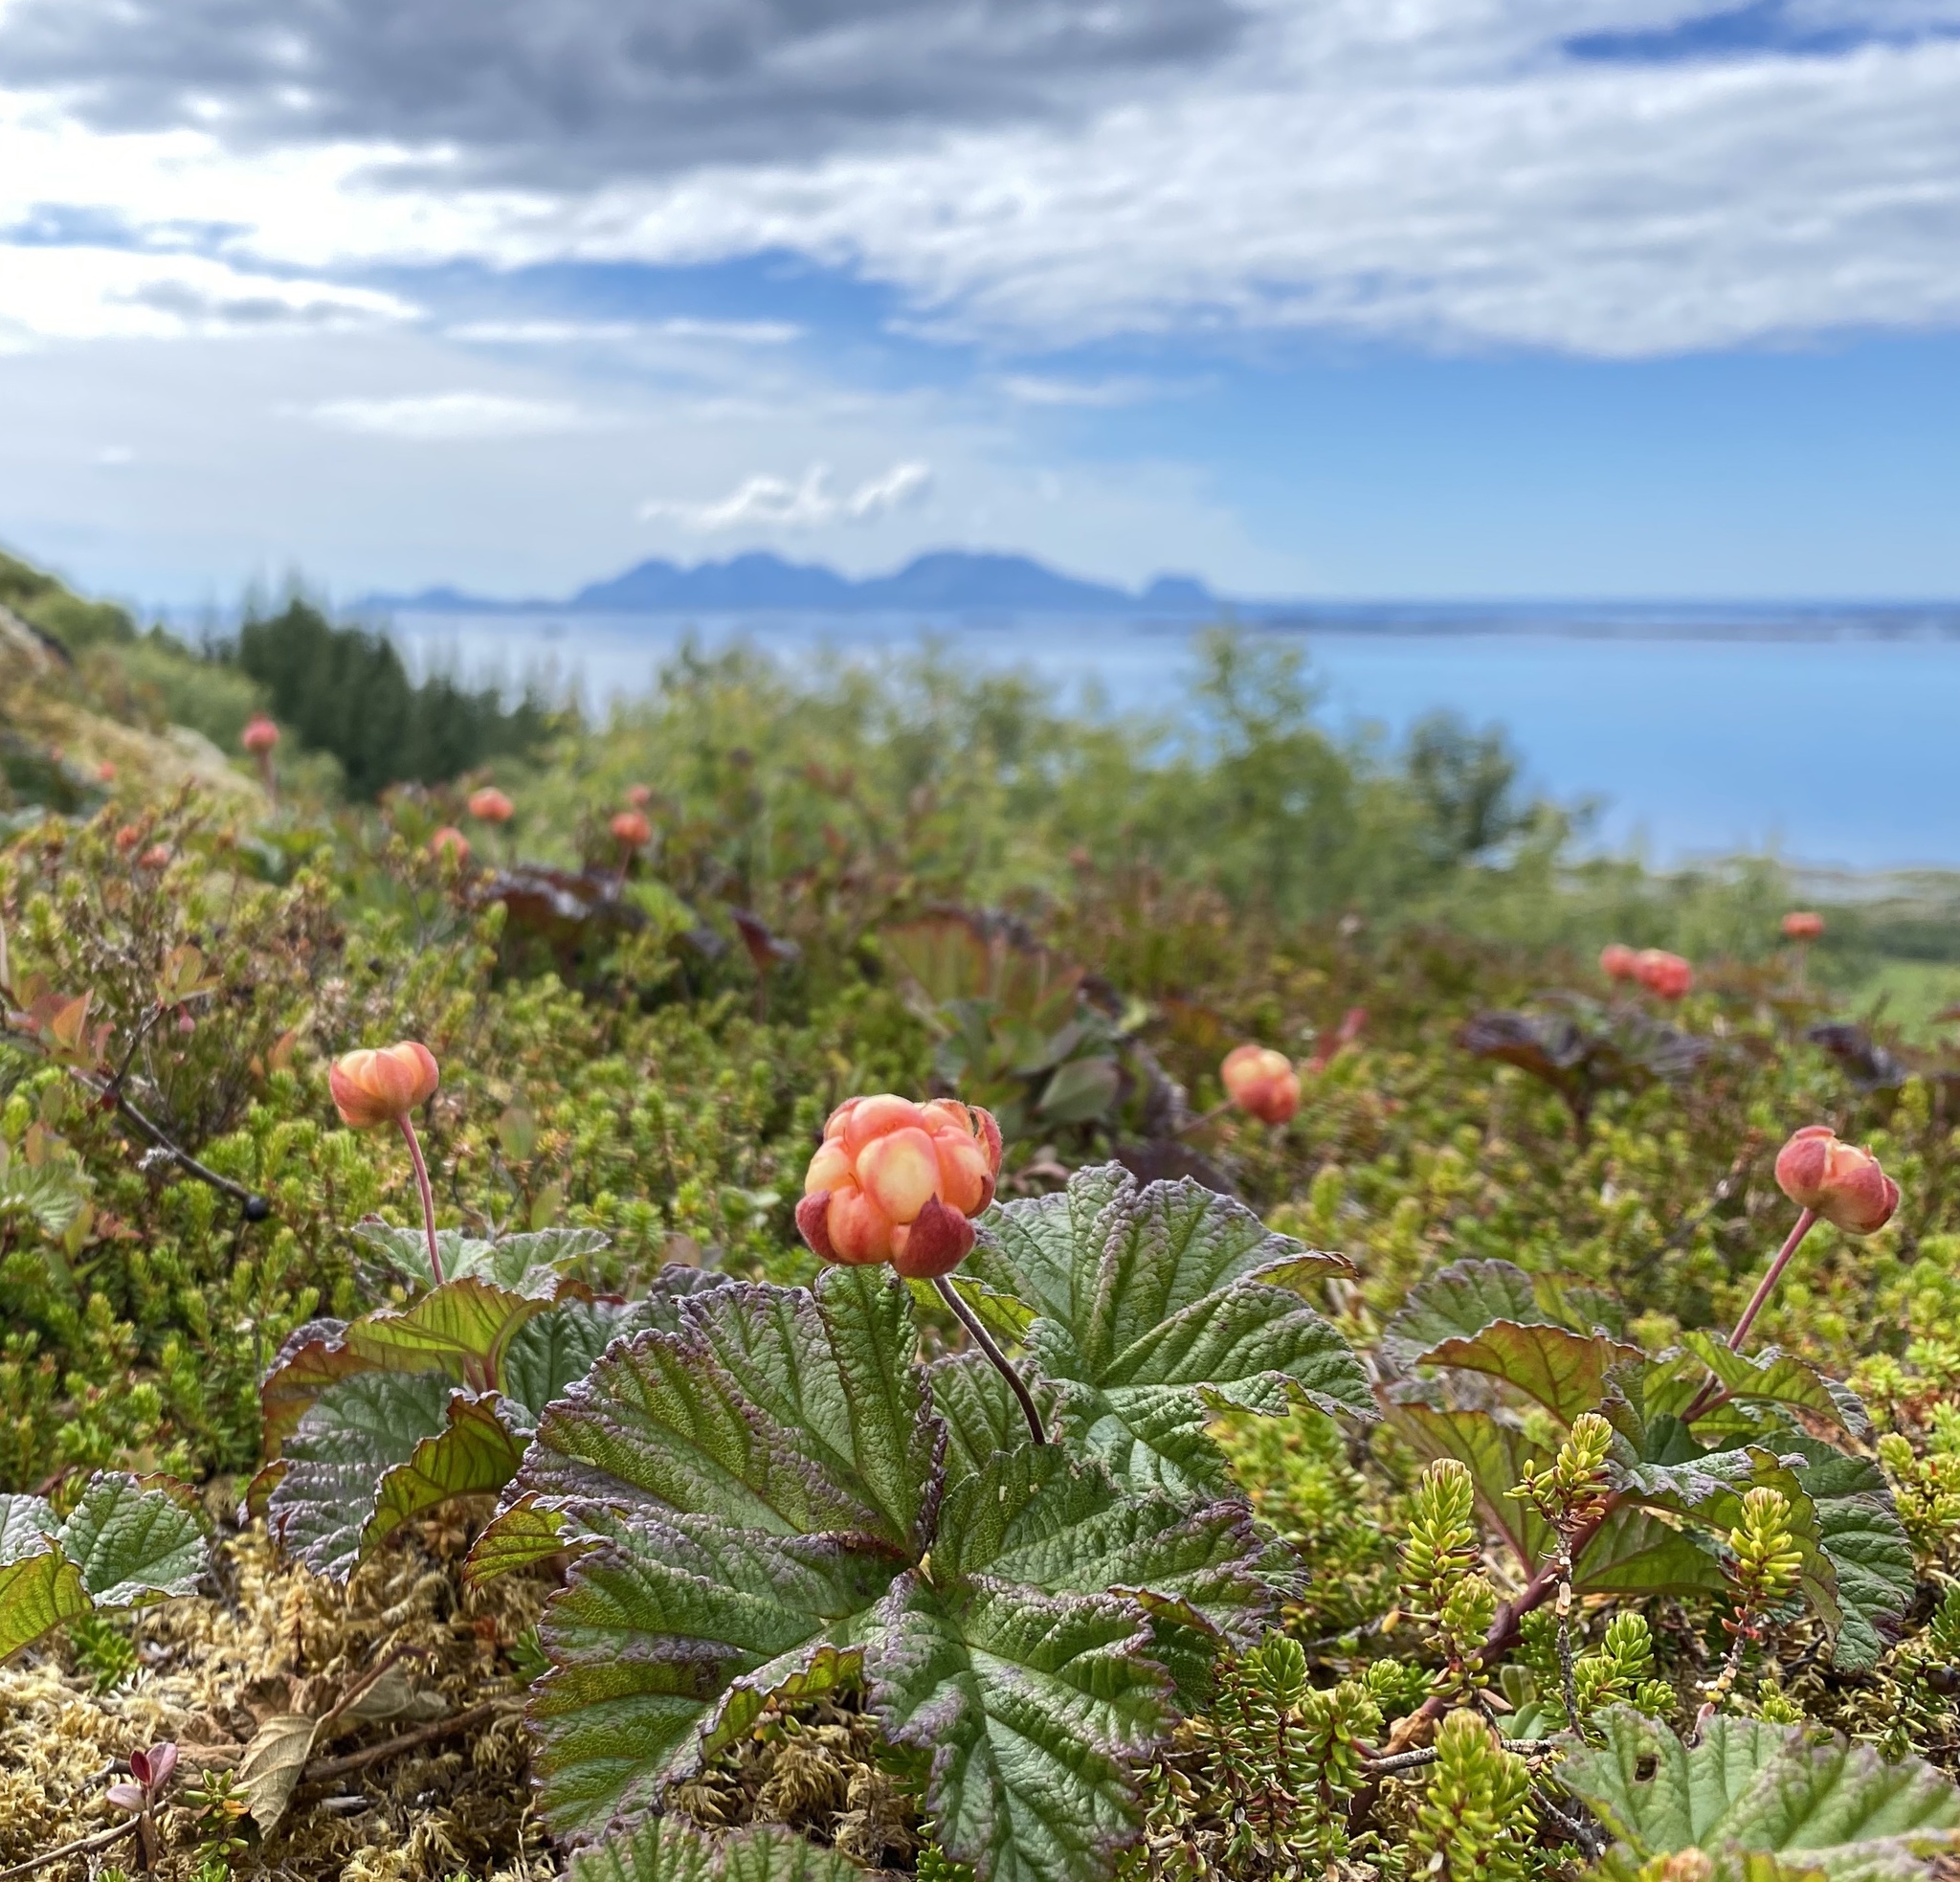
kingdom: Plantae
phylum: Tracheophyta
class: Magnoliopsida
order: Rosales
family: Rosaceae
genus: Rubus
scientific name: Rubus chamaemorus
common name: Cloudberry
